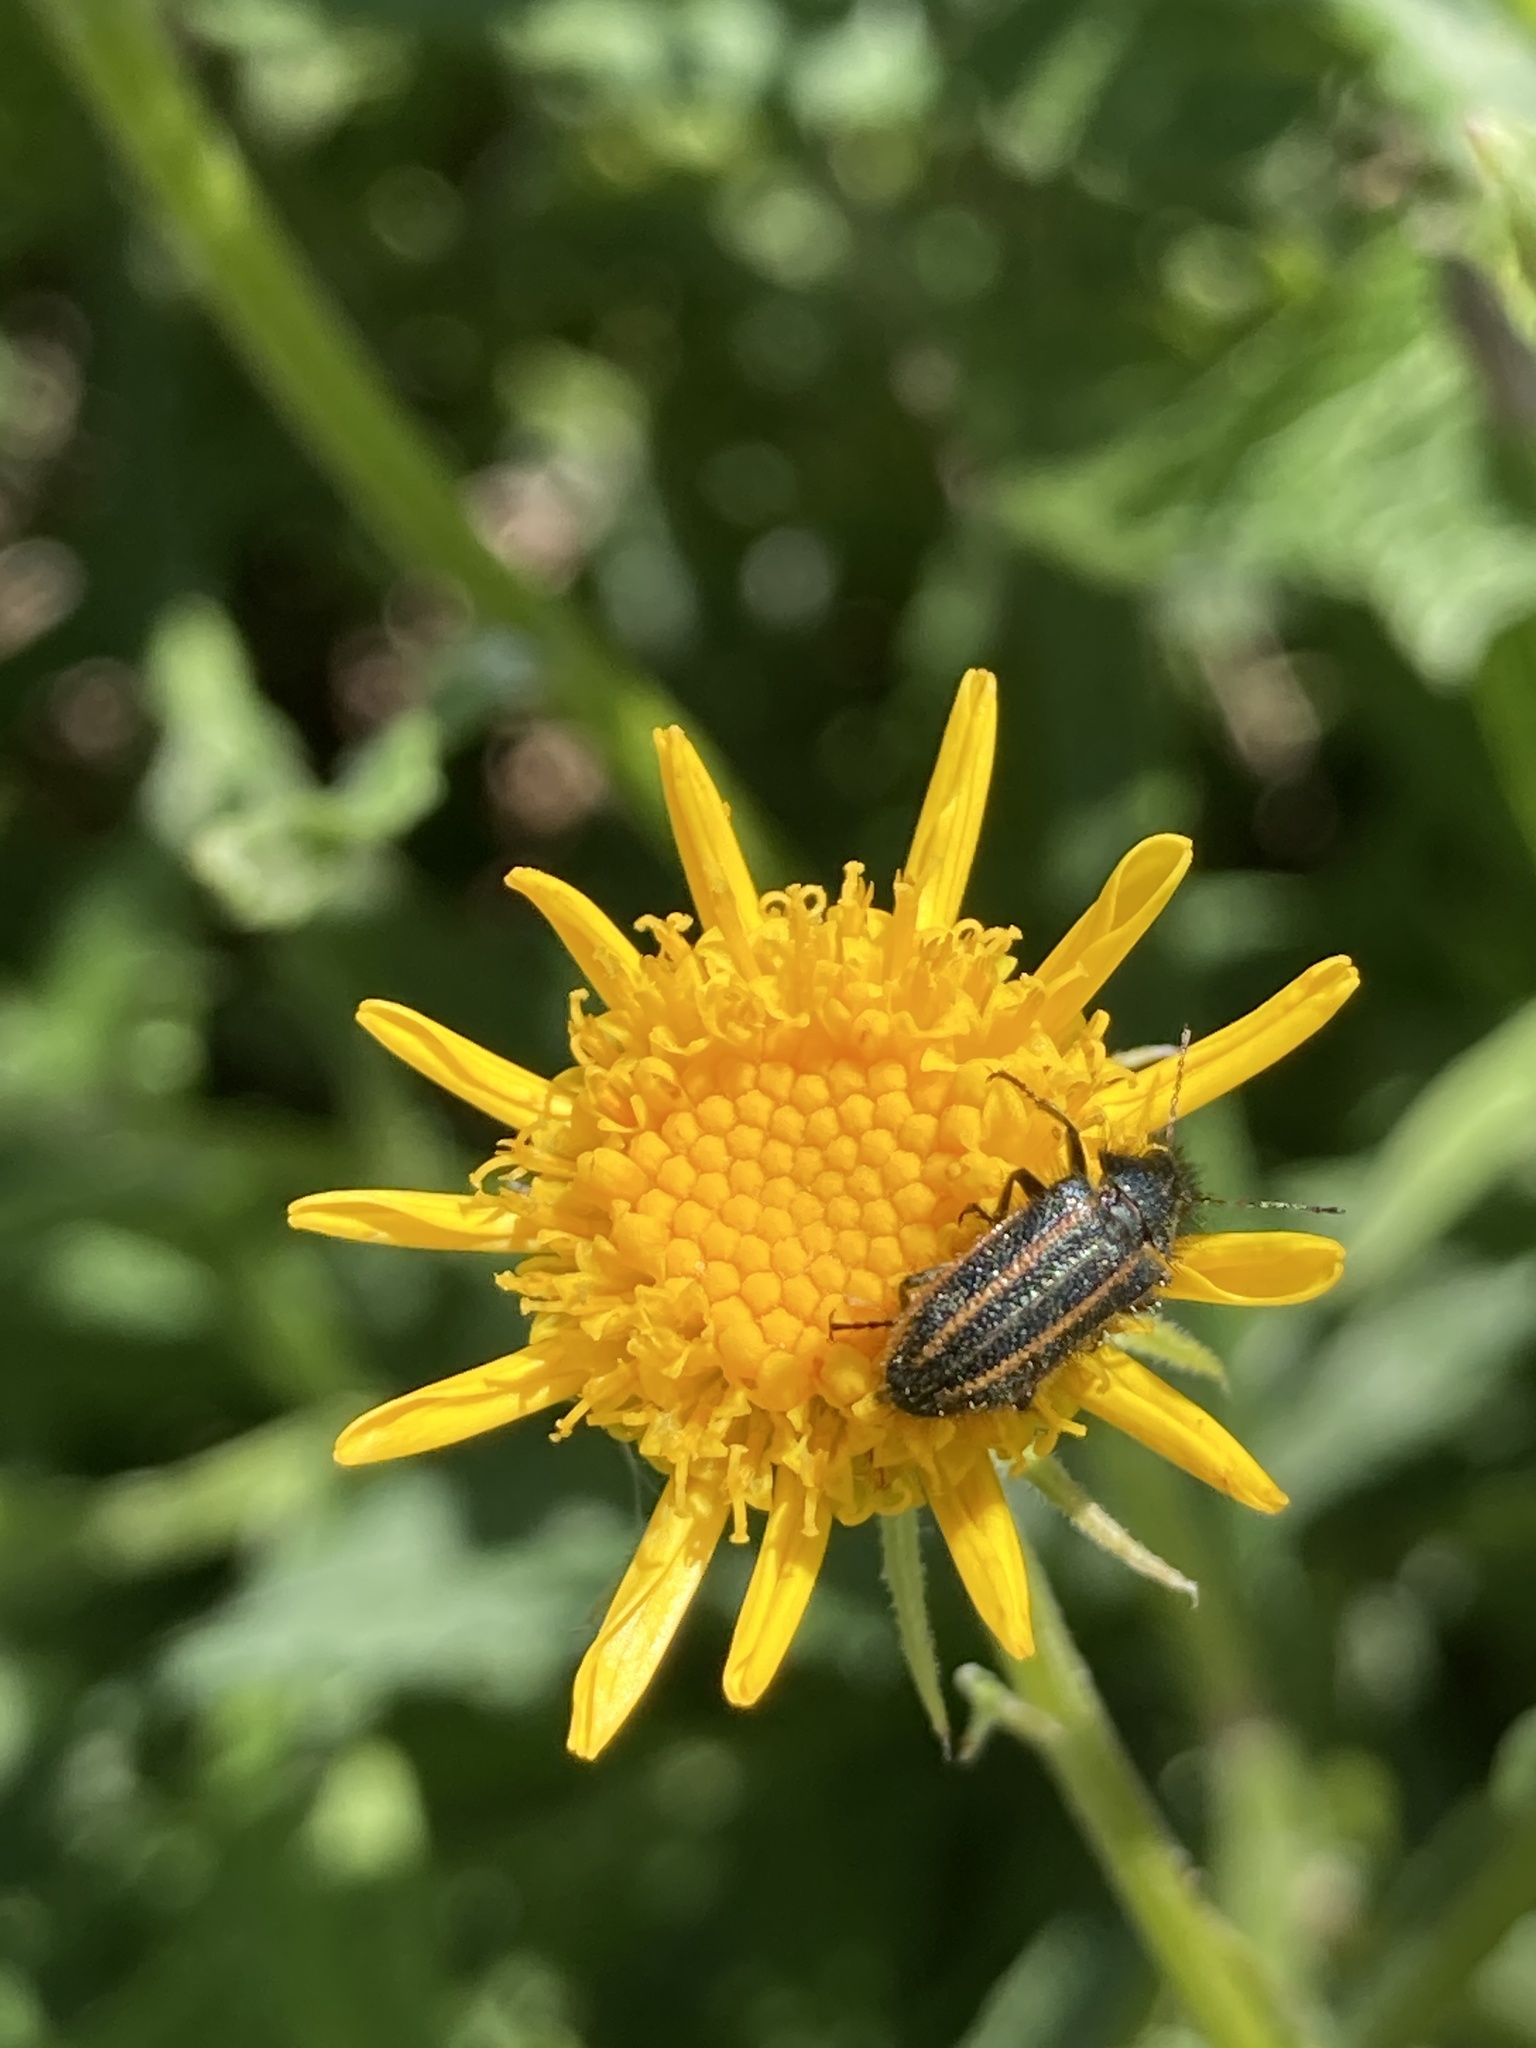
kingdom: Animalia
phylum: Arthropoda
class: Insecta
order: Coleoptera
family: Melyridae
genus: Astylus
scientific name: Astylus
